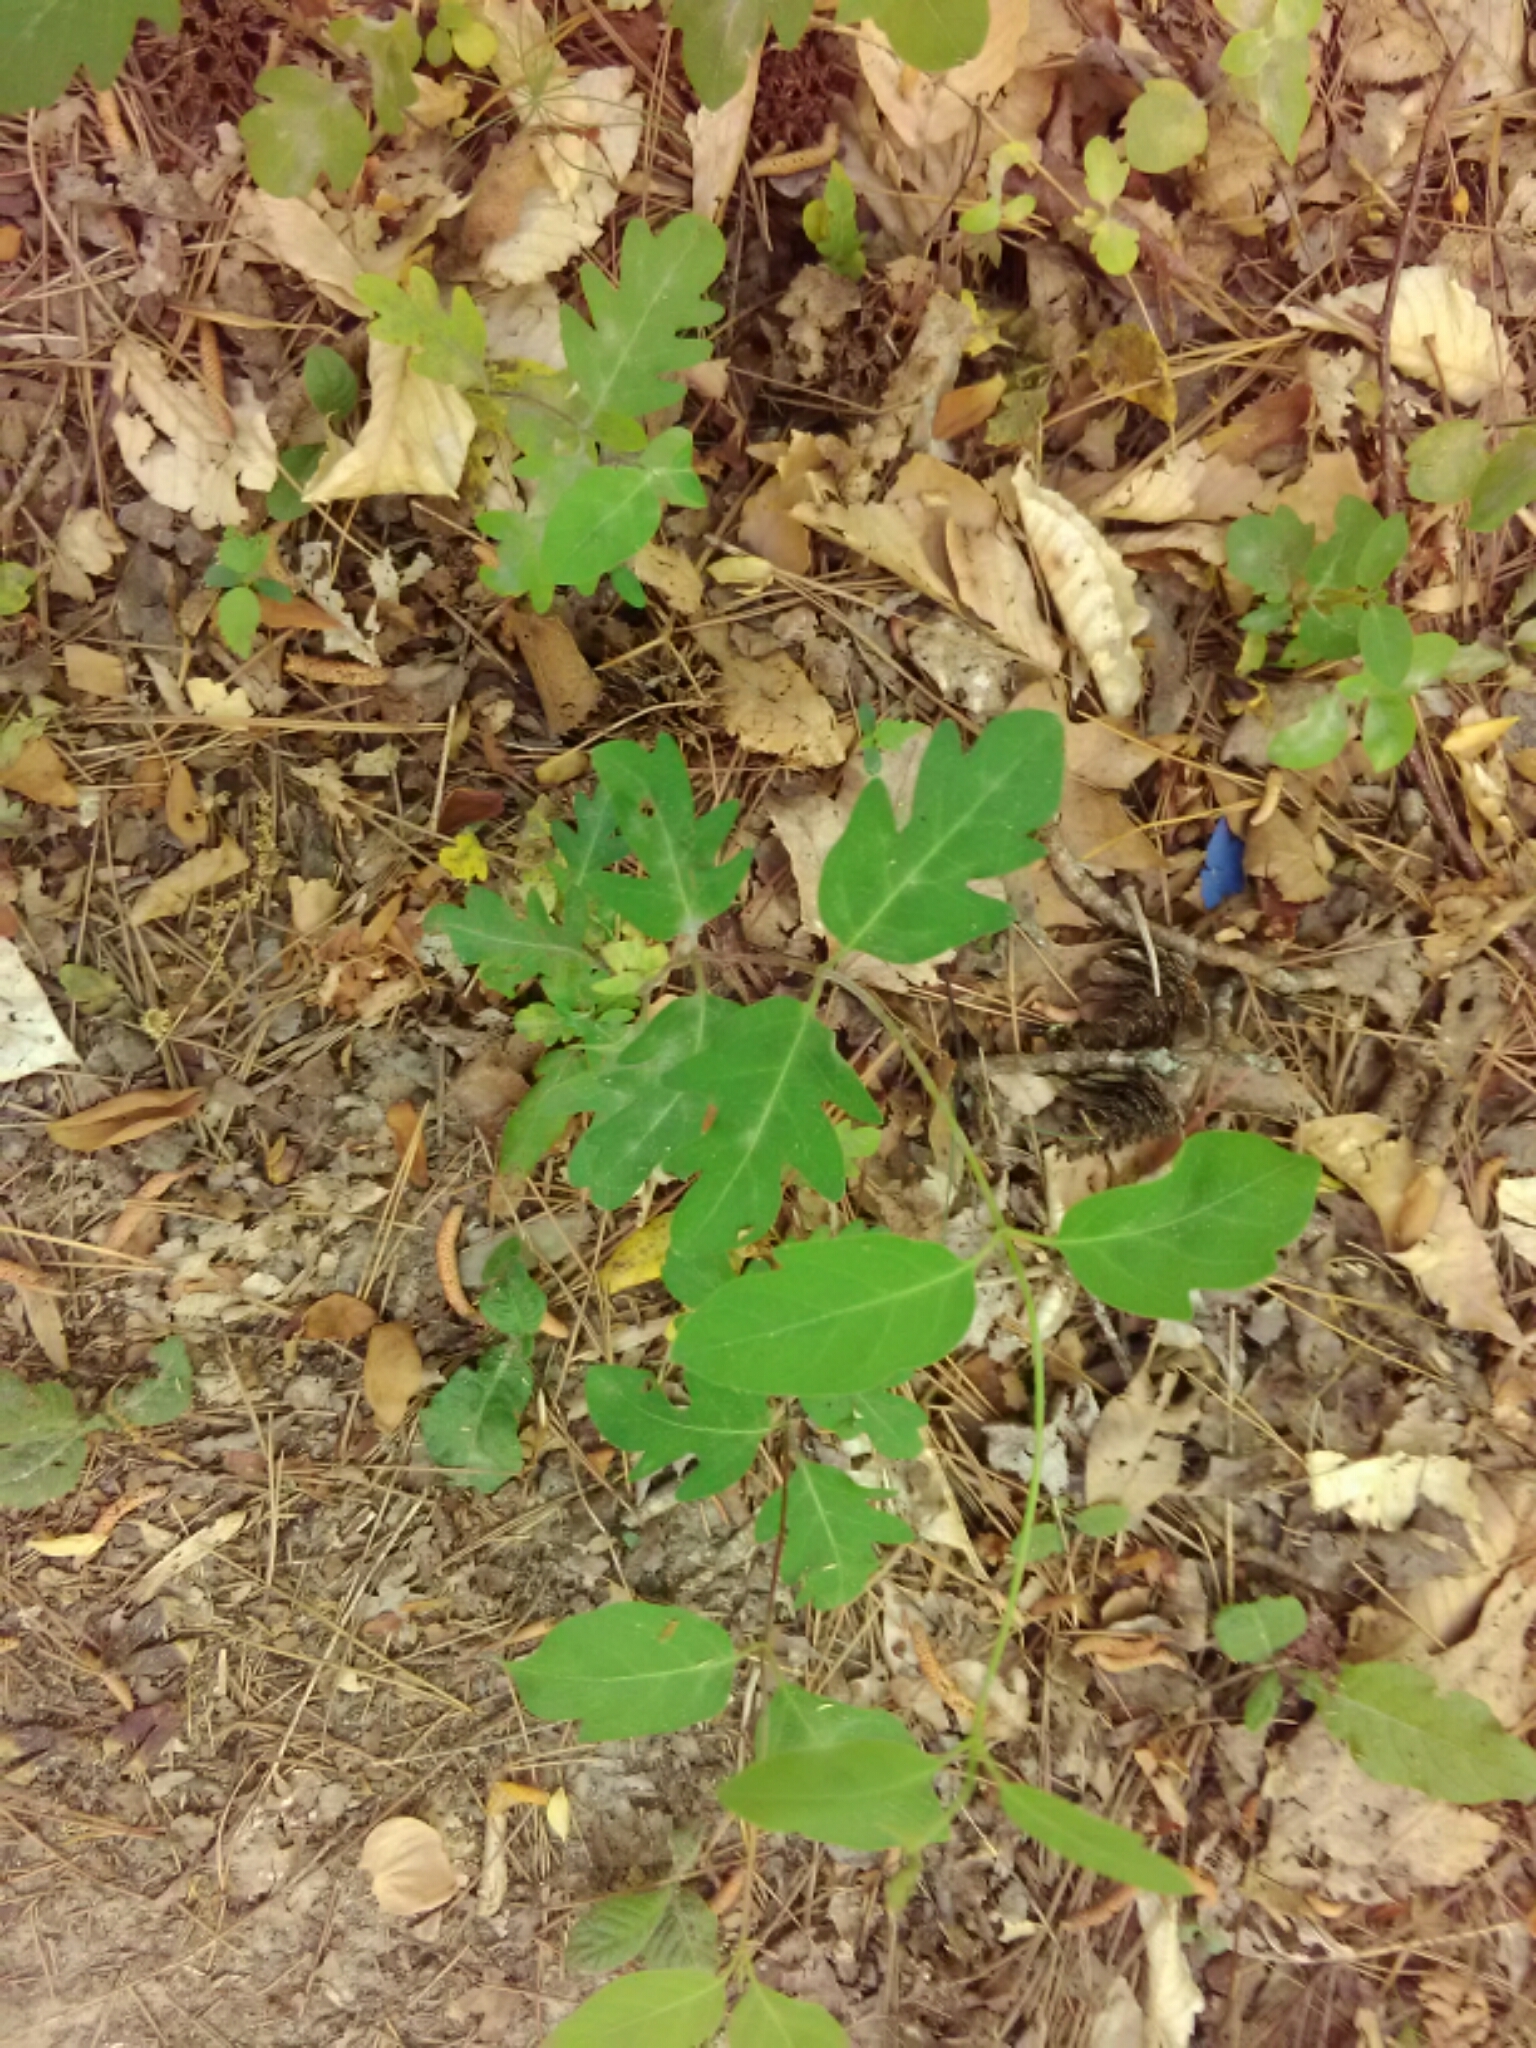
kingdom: Plantae
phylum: Tracheophyta
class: Magnoliopsida
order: Dipsacales
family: Caprifoliaceae
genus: Lonicera
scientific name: Lonicera japonica
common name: Japanese honeysuckle
